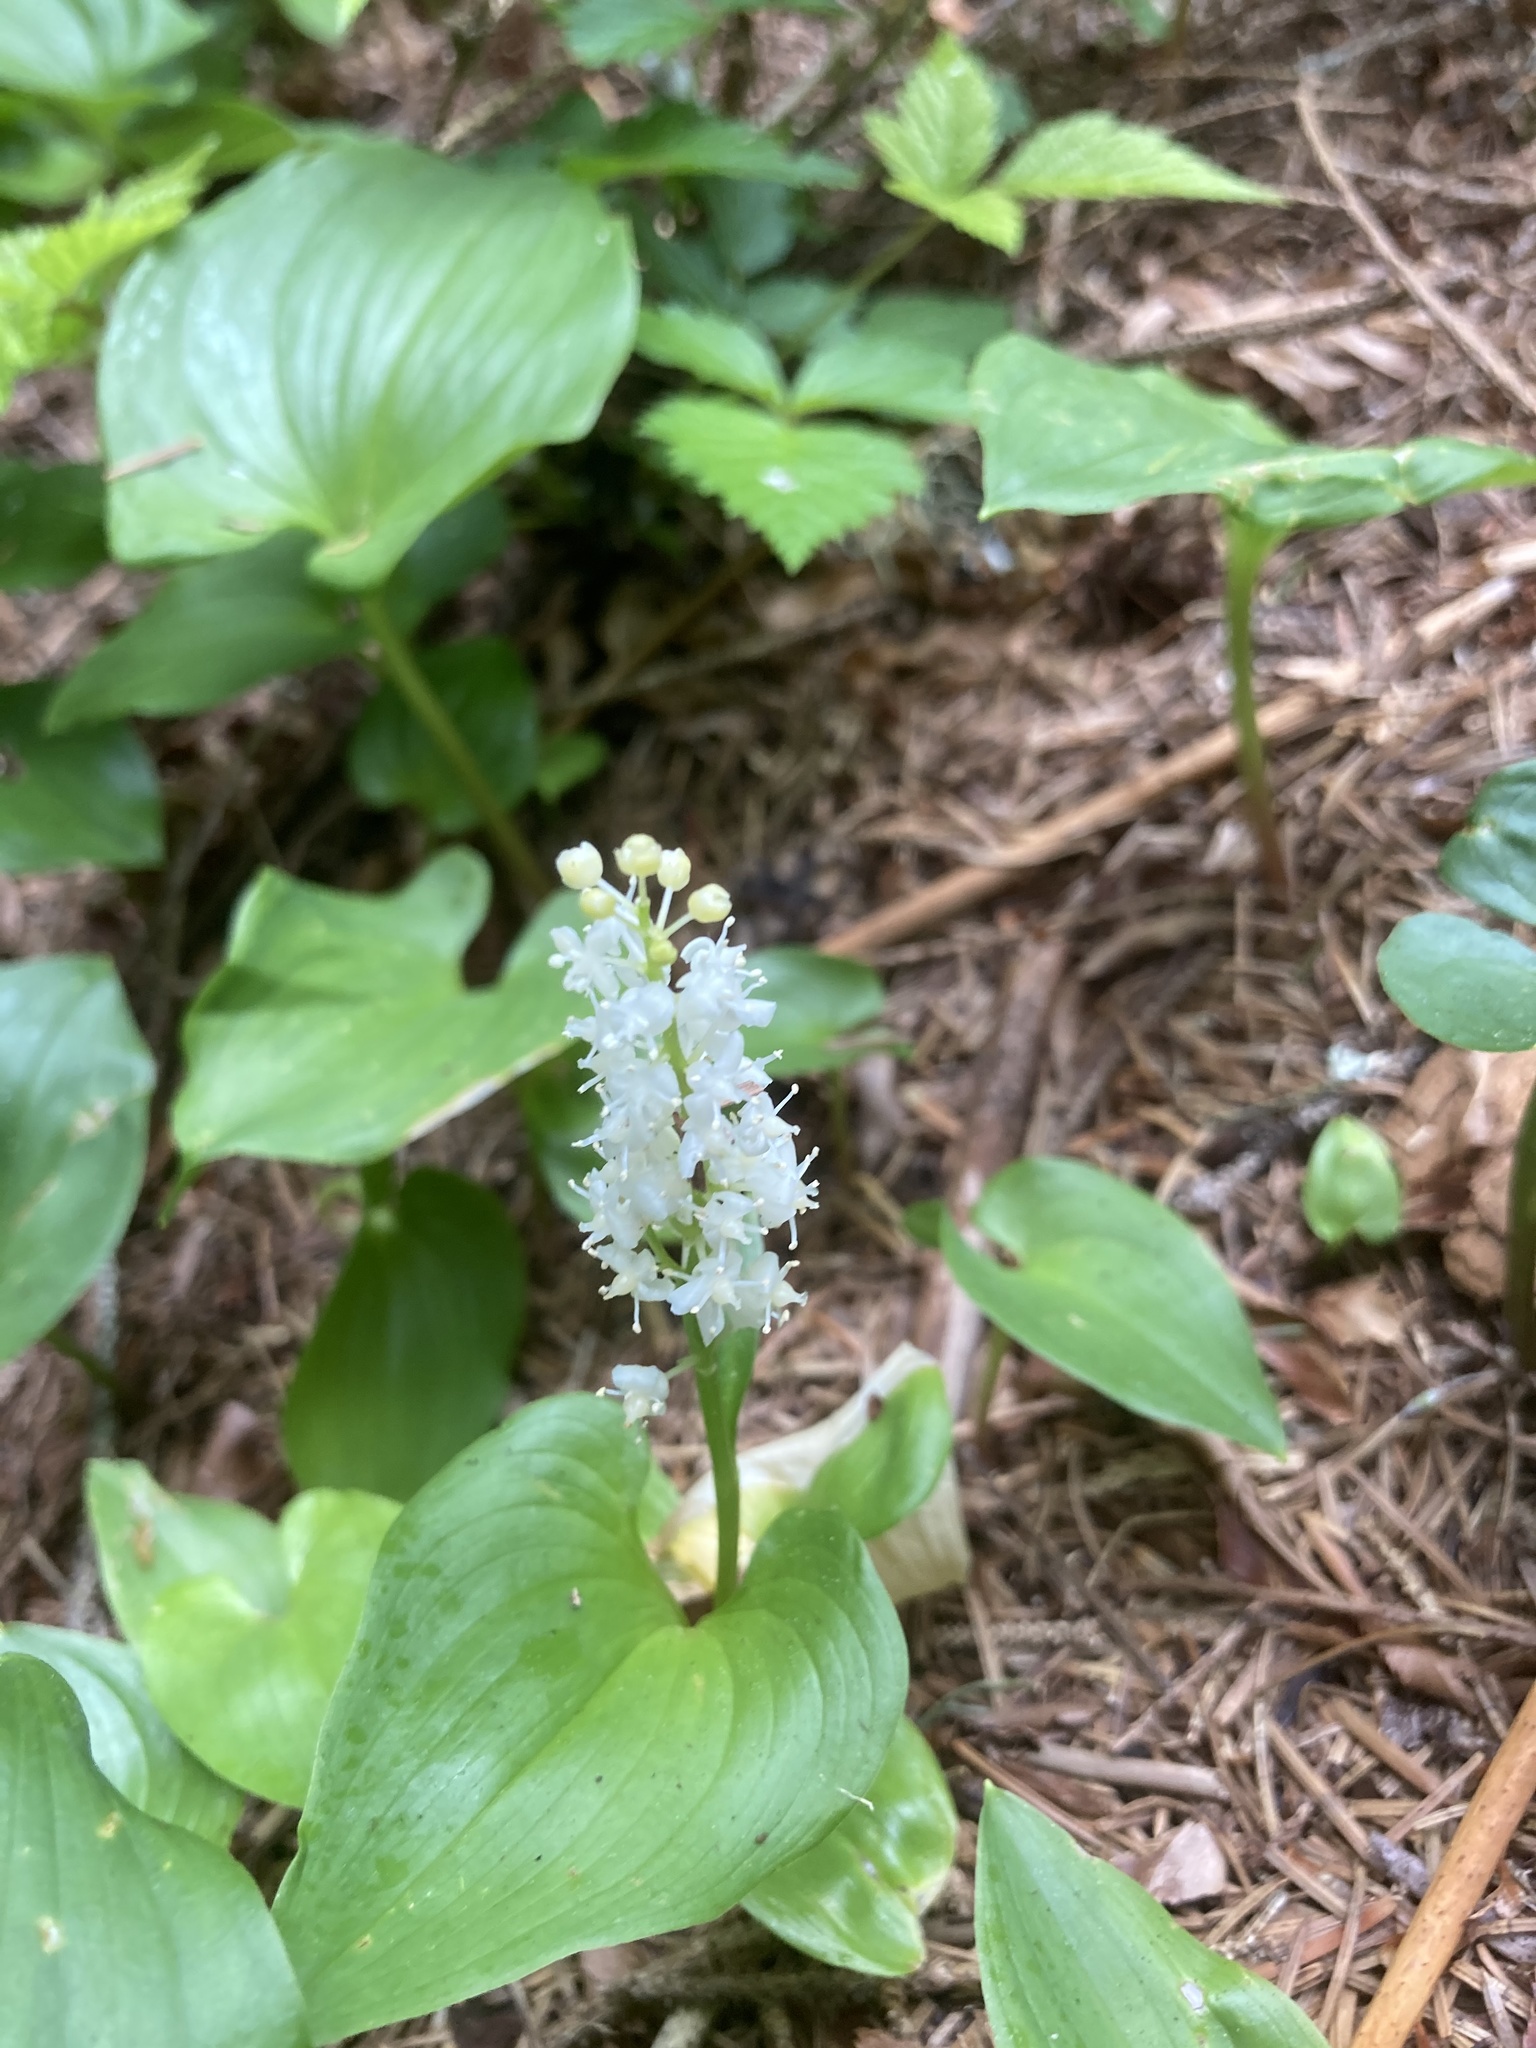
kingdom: Plantae
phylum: Tracheophyta
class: Liliopsida
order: Asparagales
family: Asparagaceae
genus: Maianthemum
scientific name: Maianthemum dilatatum
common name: False lily-of-the-valley
